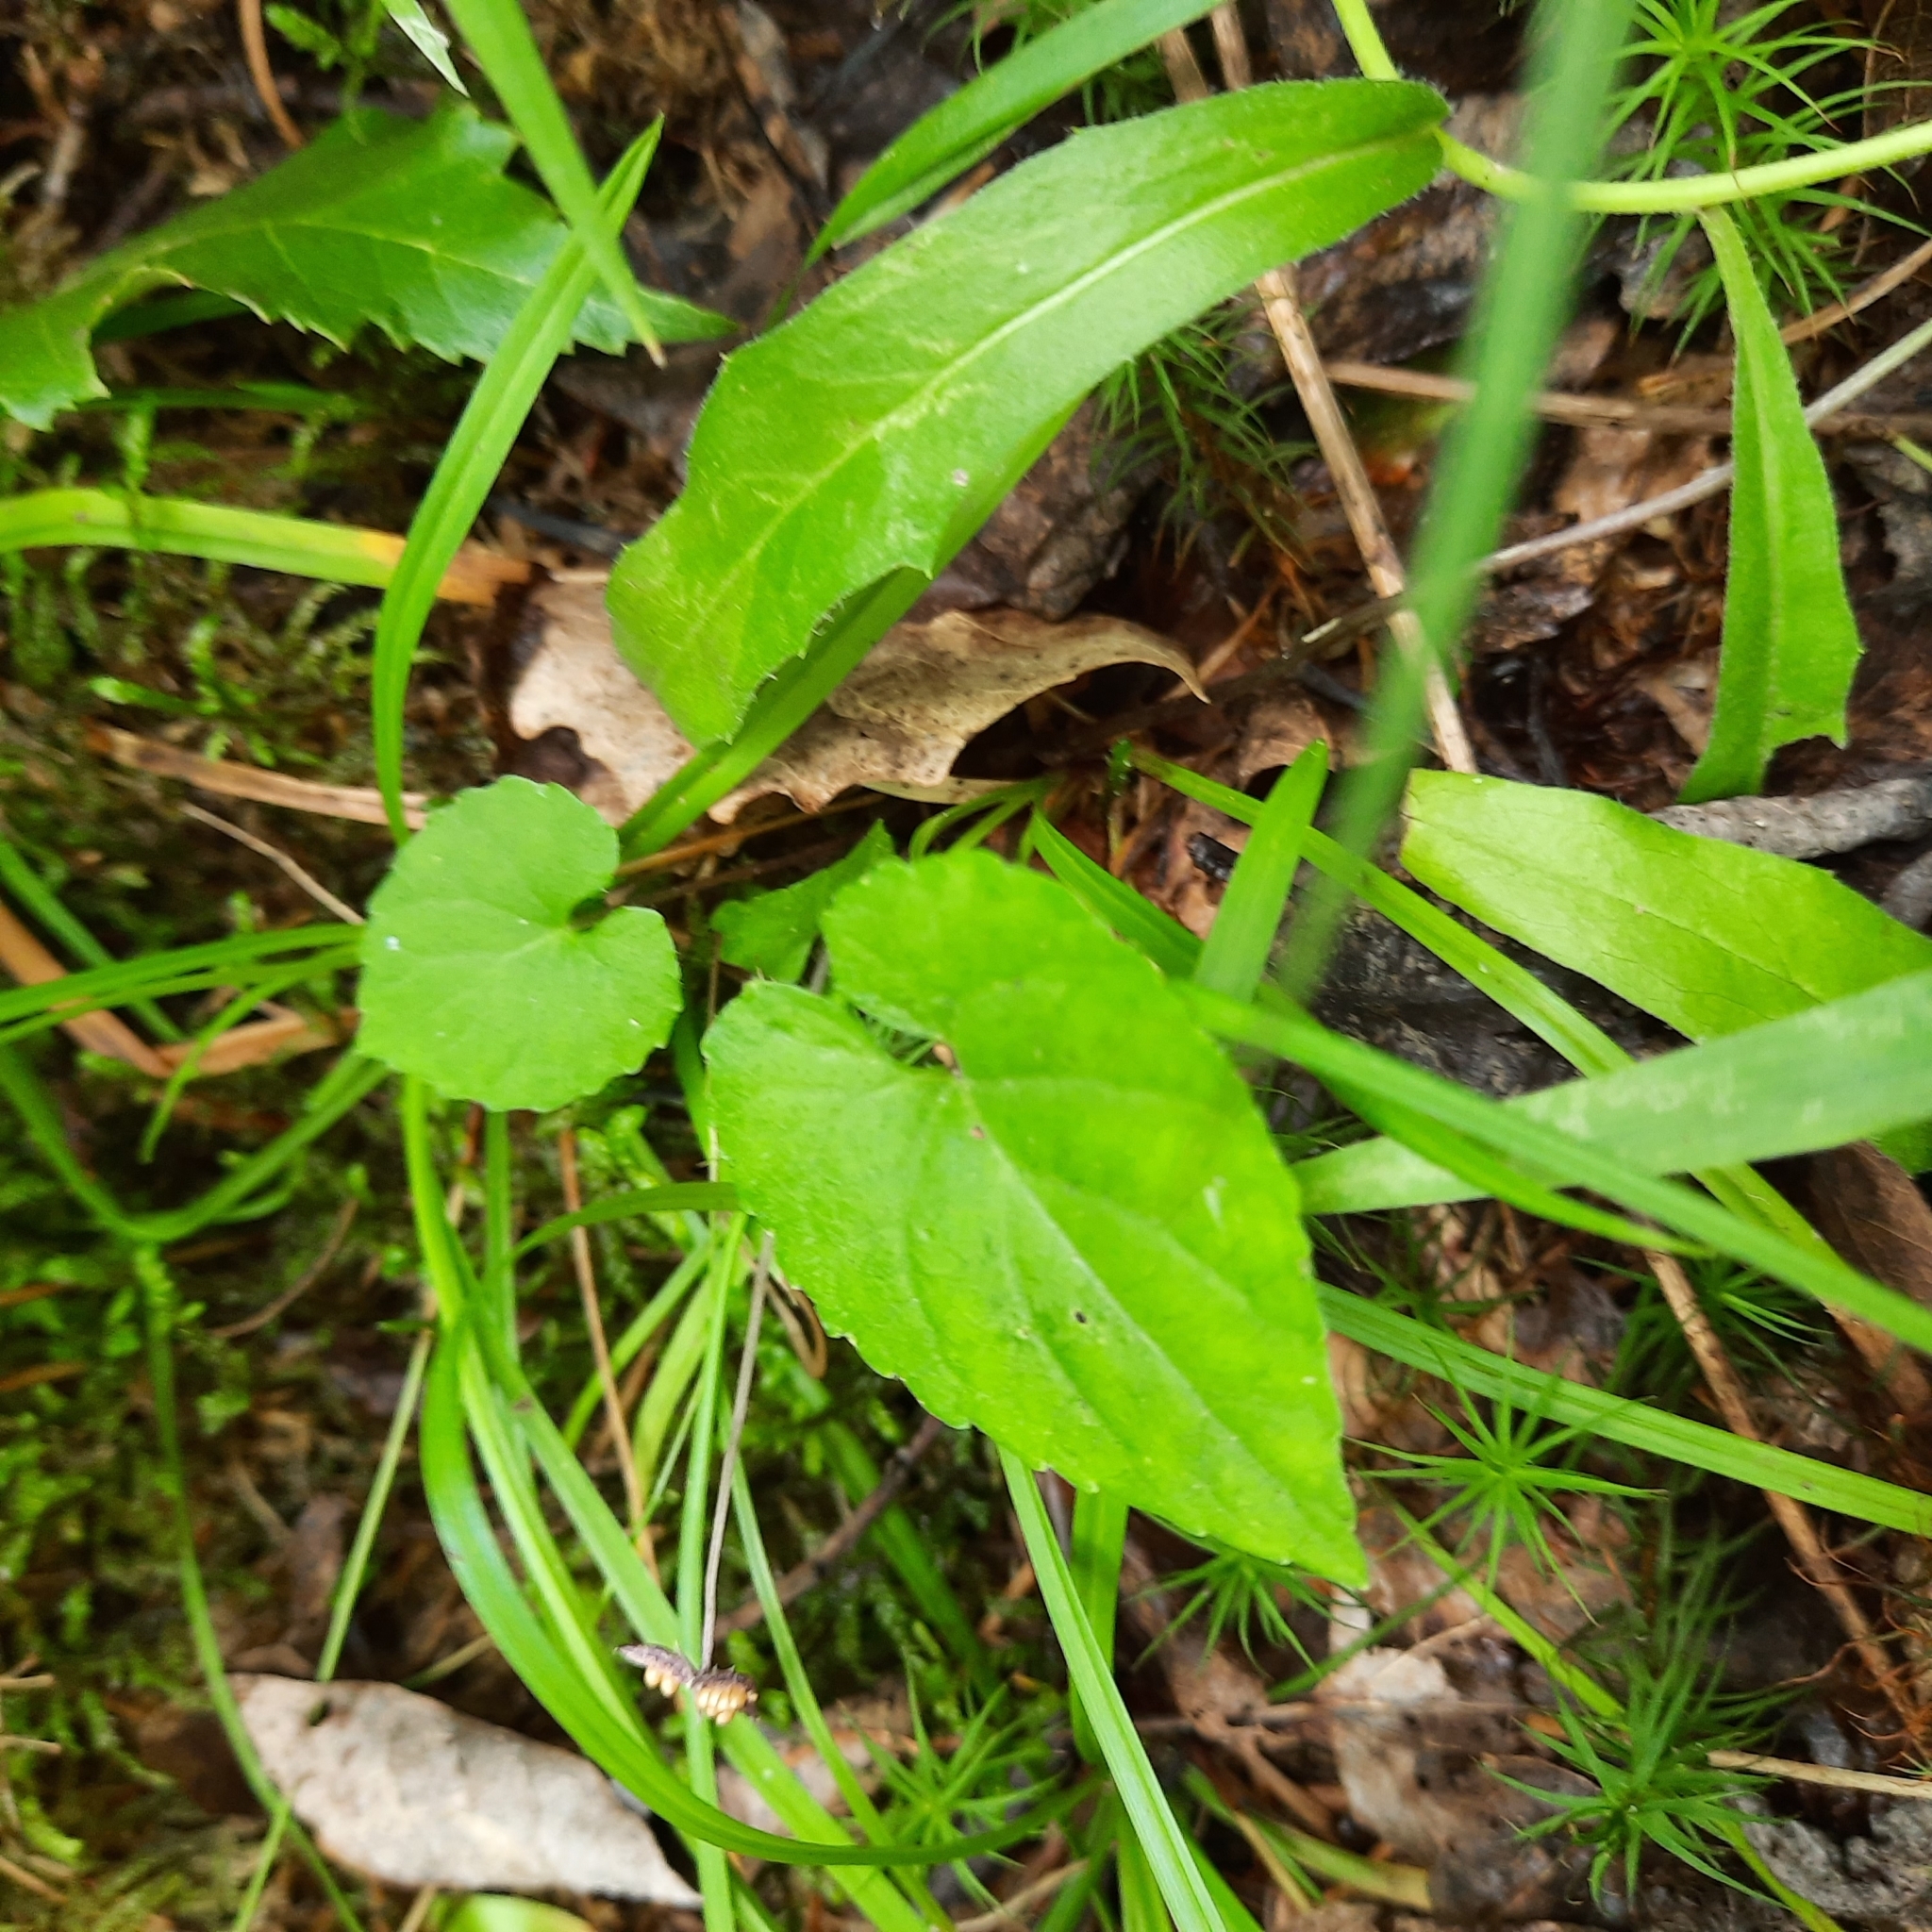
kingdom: Plantae
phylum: Tracheophyta
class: Magnoliopsida
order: Malpighiales
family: Violaceae
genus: Viola
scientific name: Viola selkirkii
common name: Selkirk's violet
